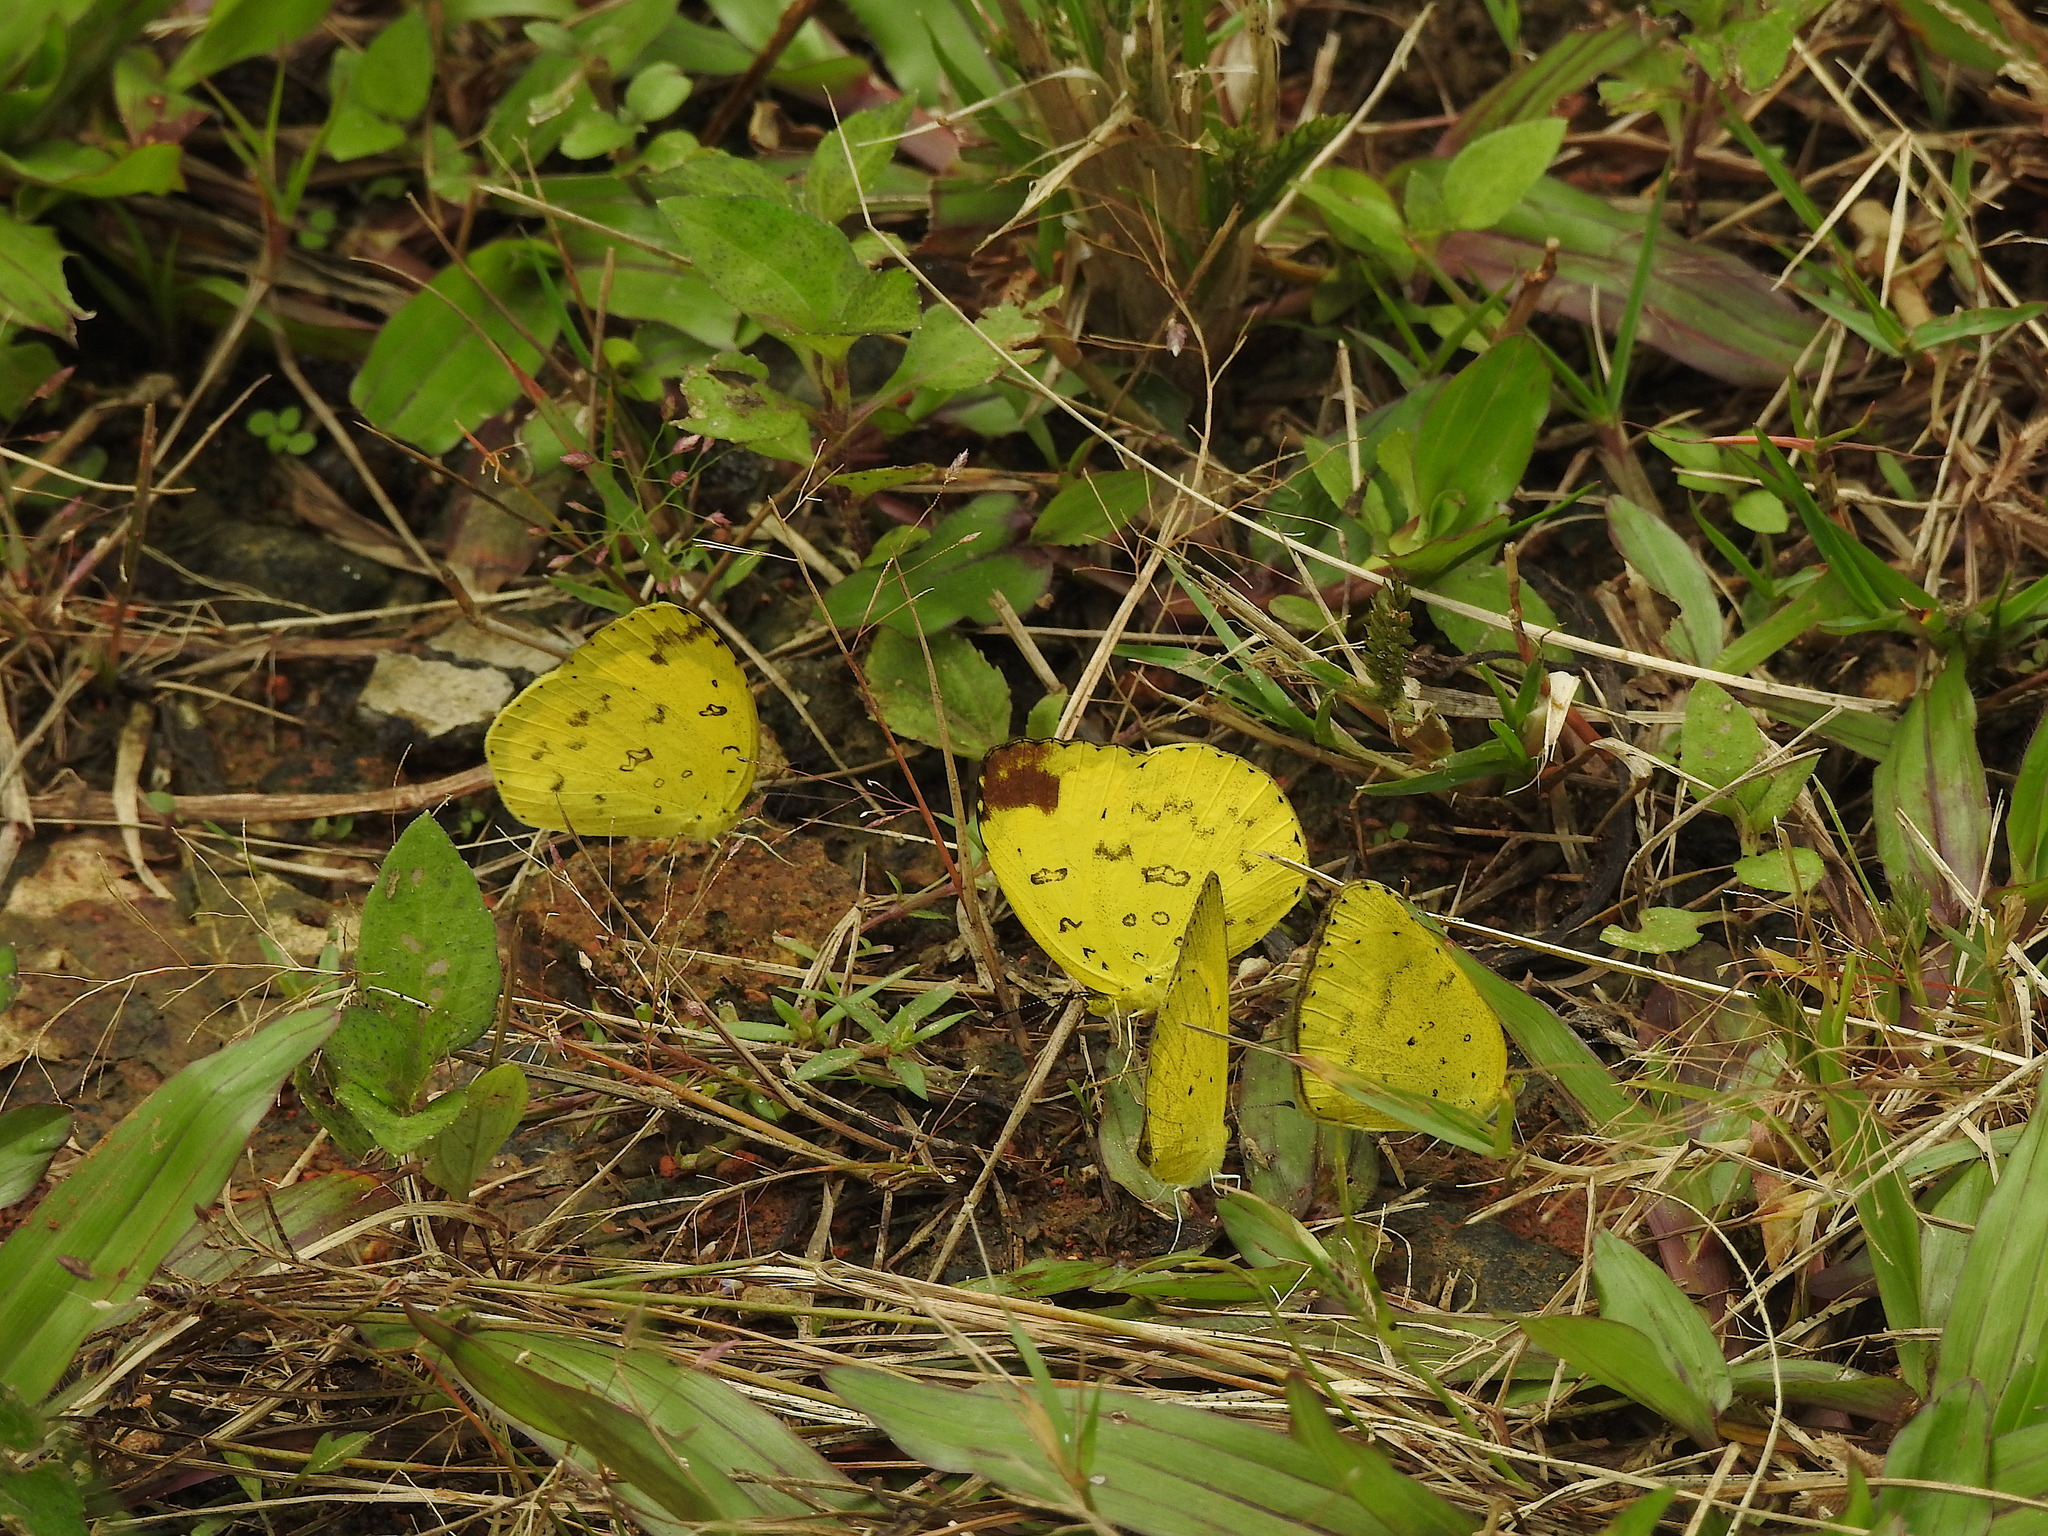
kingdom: Animalia
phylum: Arthropoda
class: Insecta
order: Lepidoptera
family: Pieridae
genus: Eurema
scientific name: Eurema blanda
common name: Three-spot grass yellow
